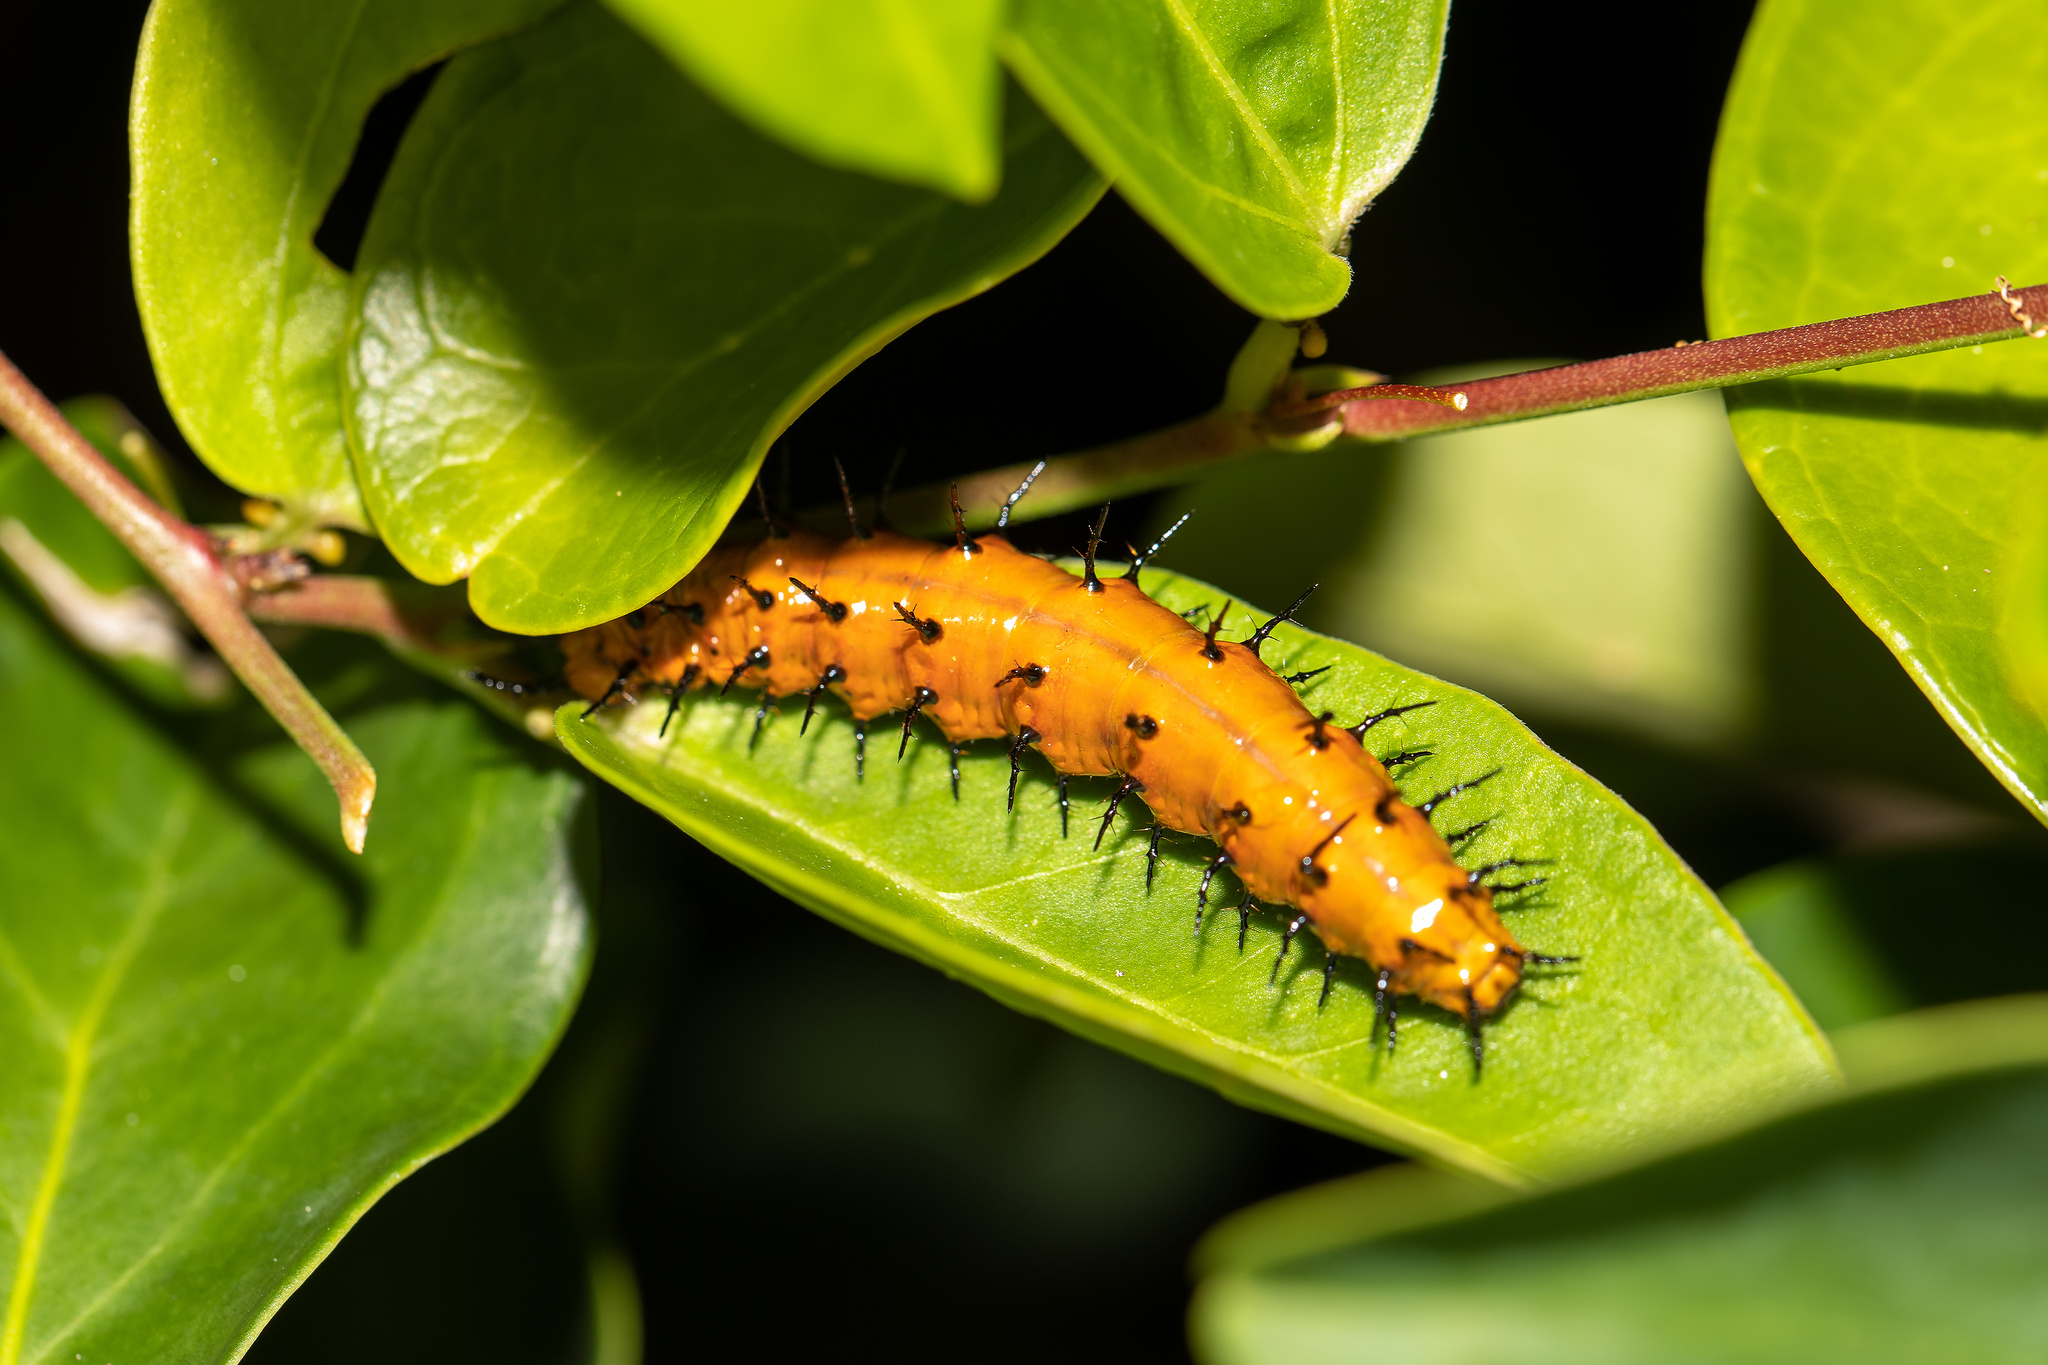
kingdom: Animalia
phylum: Arthropoda
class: Insecta
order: Lepidoptera
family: Nymphalidae
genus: Dione
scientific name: Dione vanillae
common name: Gulf fritillary
